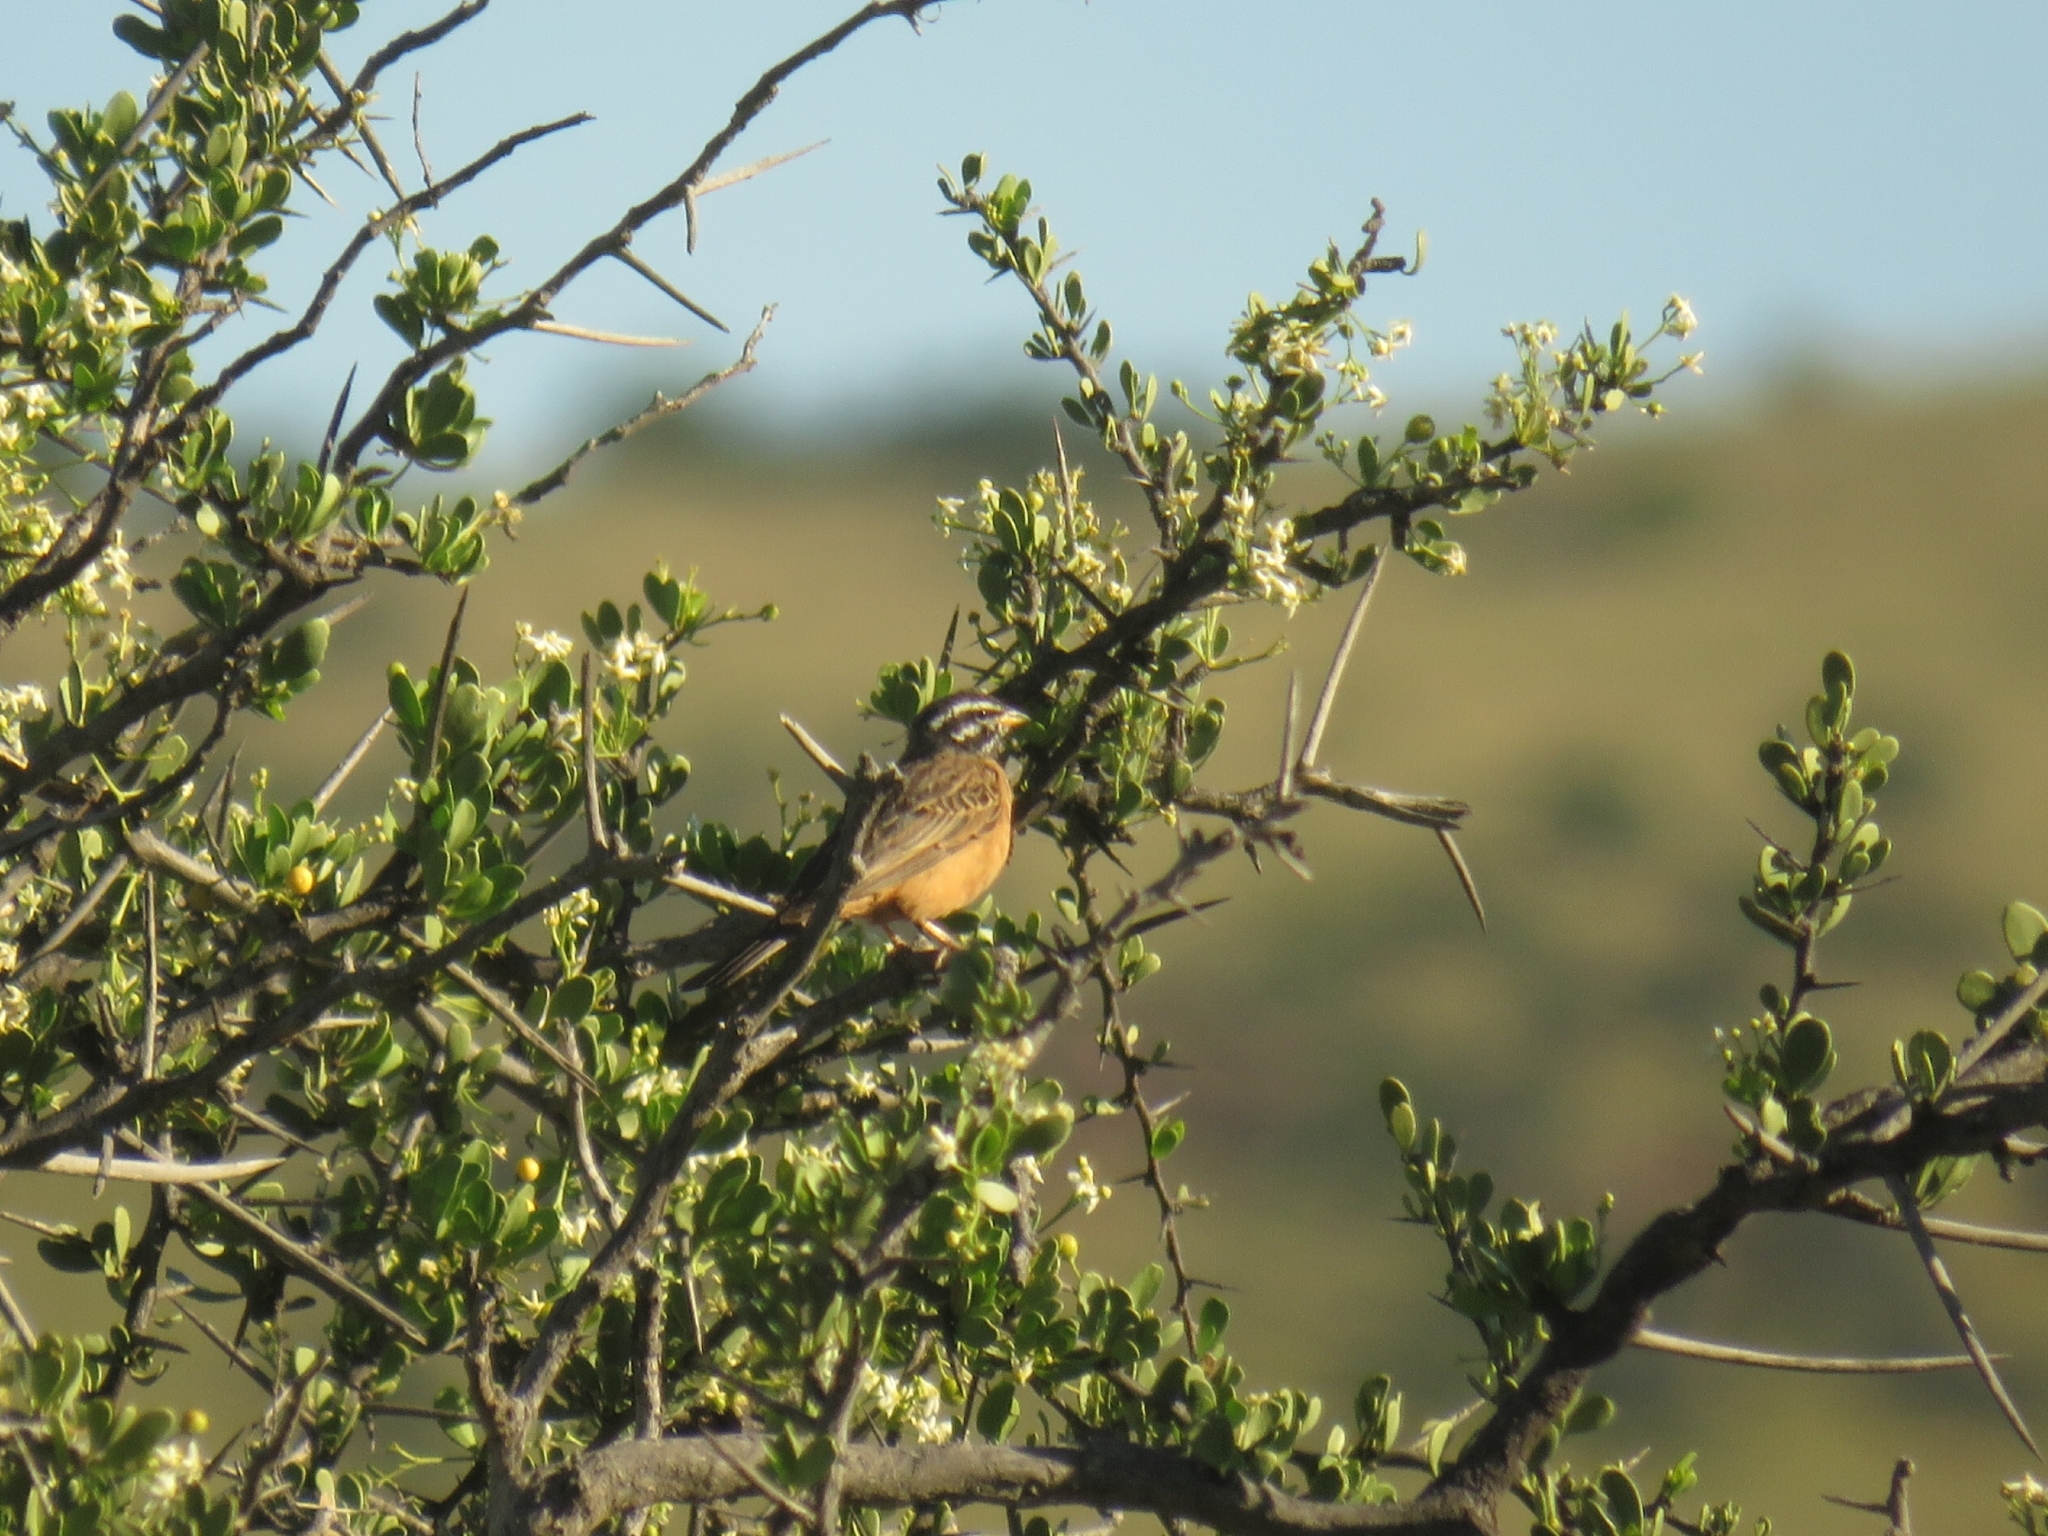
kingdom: Animalia
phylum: Chordata
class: Aves
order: Passeriformes
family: Emberizidae
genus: Emberiza
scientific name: Emberiza tahapisi
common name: Cinnamon-breasted bunting
